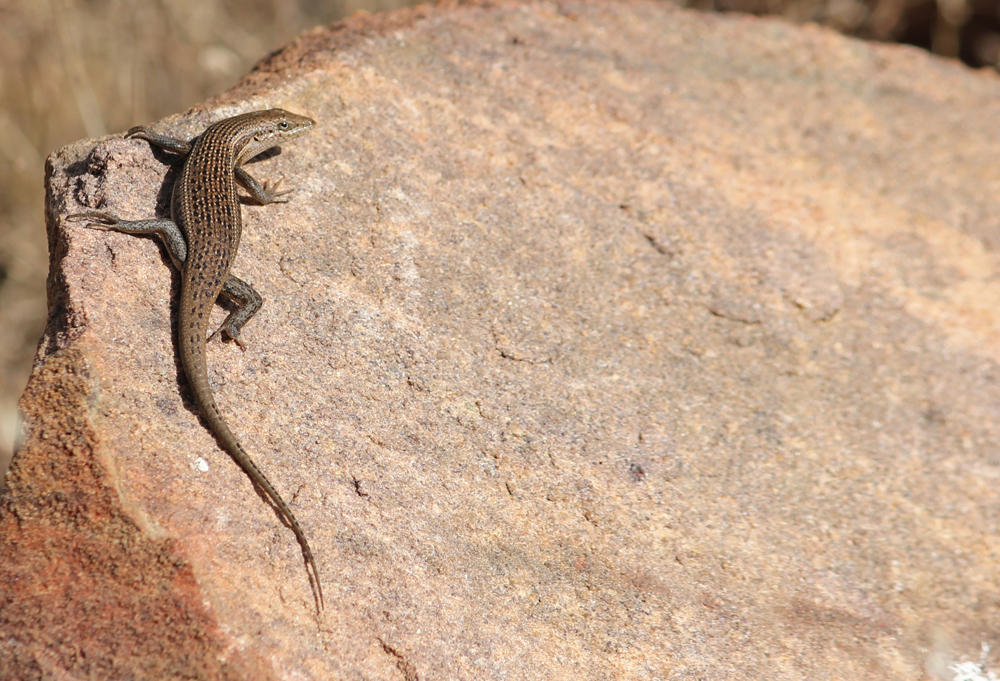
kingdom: Animalia
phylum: Chordata
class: Squamata
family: Scincidae
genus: Trachylepis
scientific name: Trachylepis laevigata
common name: Variable skink
